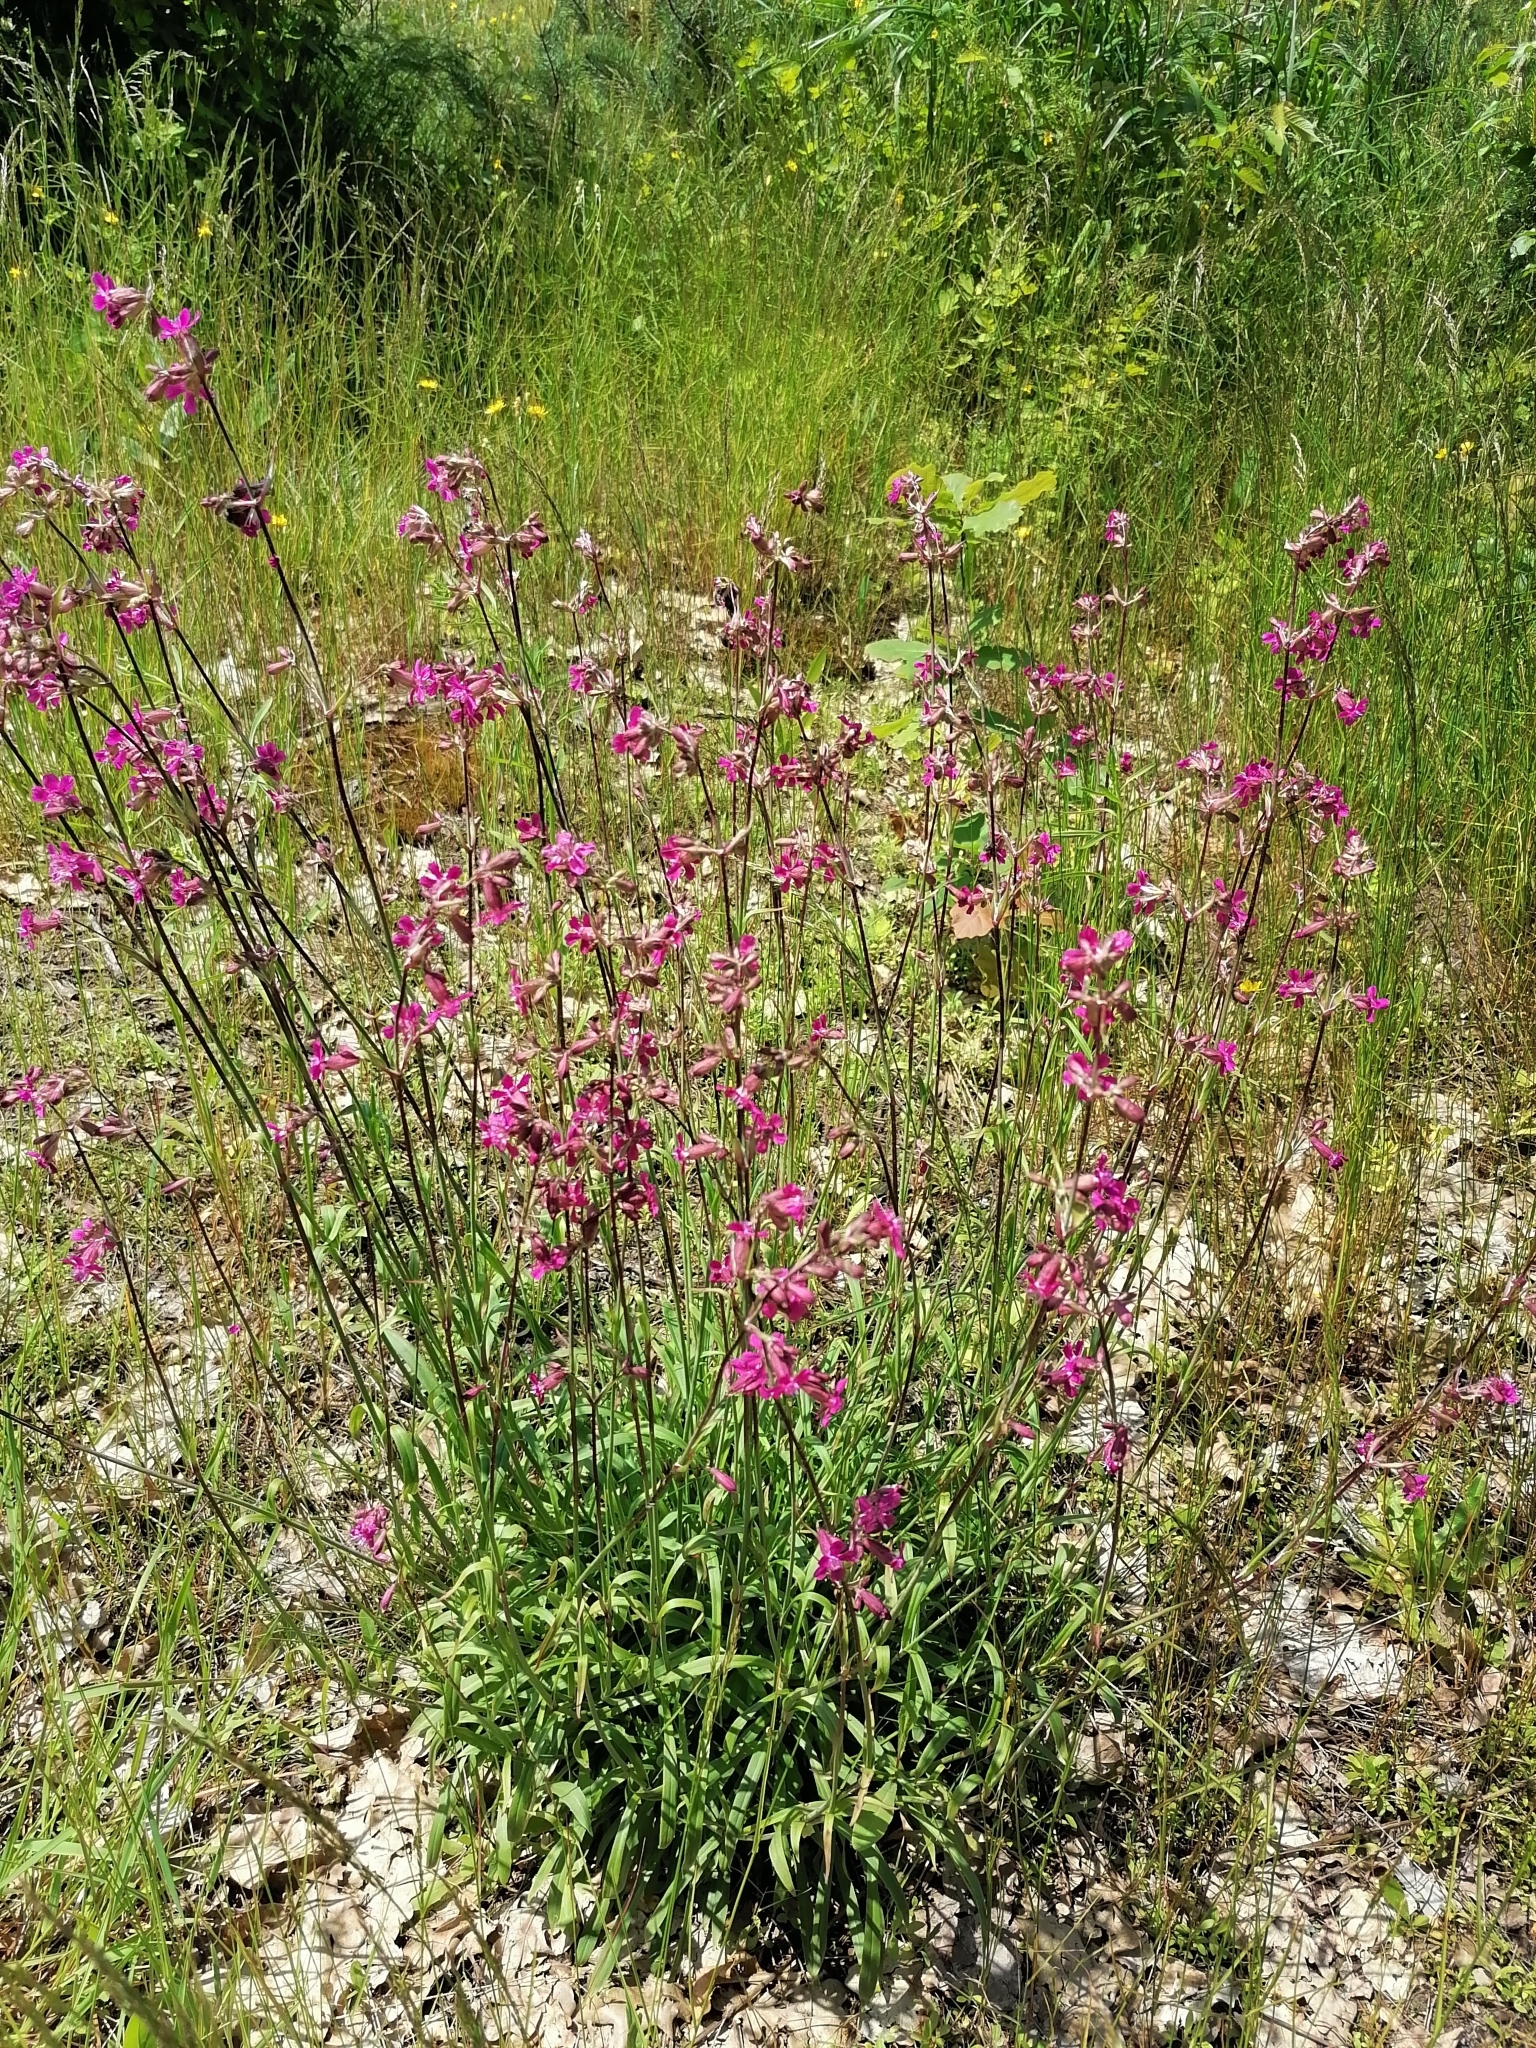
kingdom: Plantae
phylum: Tracheophyta
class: Magnoliopsida
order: Caryophyllales
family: Caryophyllaceae
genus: Viscaria
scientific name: Viscaria vulgaris
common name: Clammy campion
